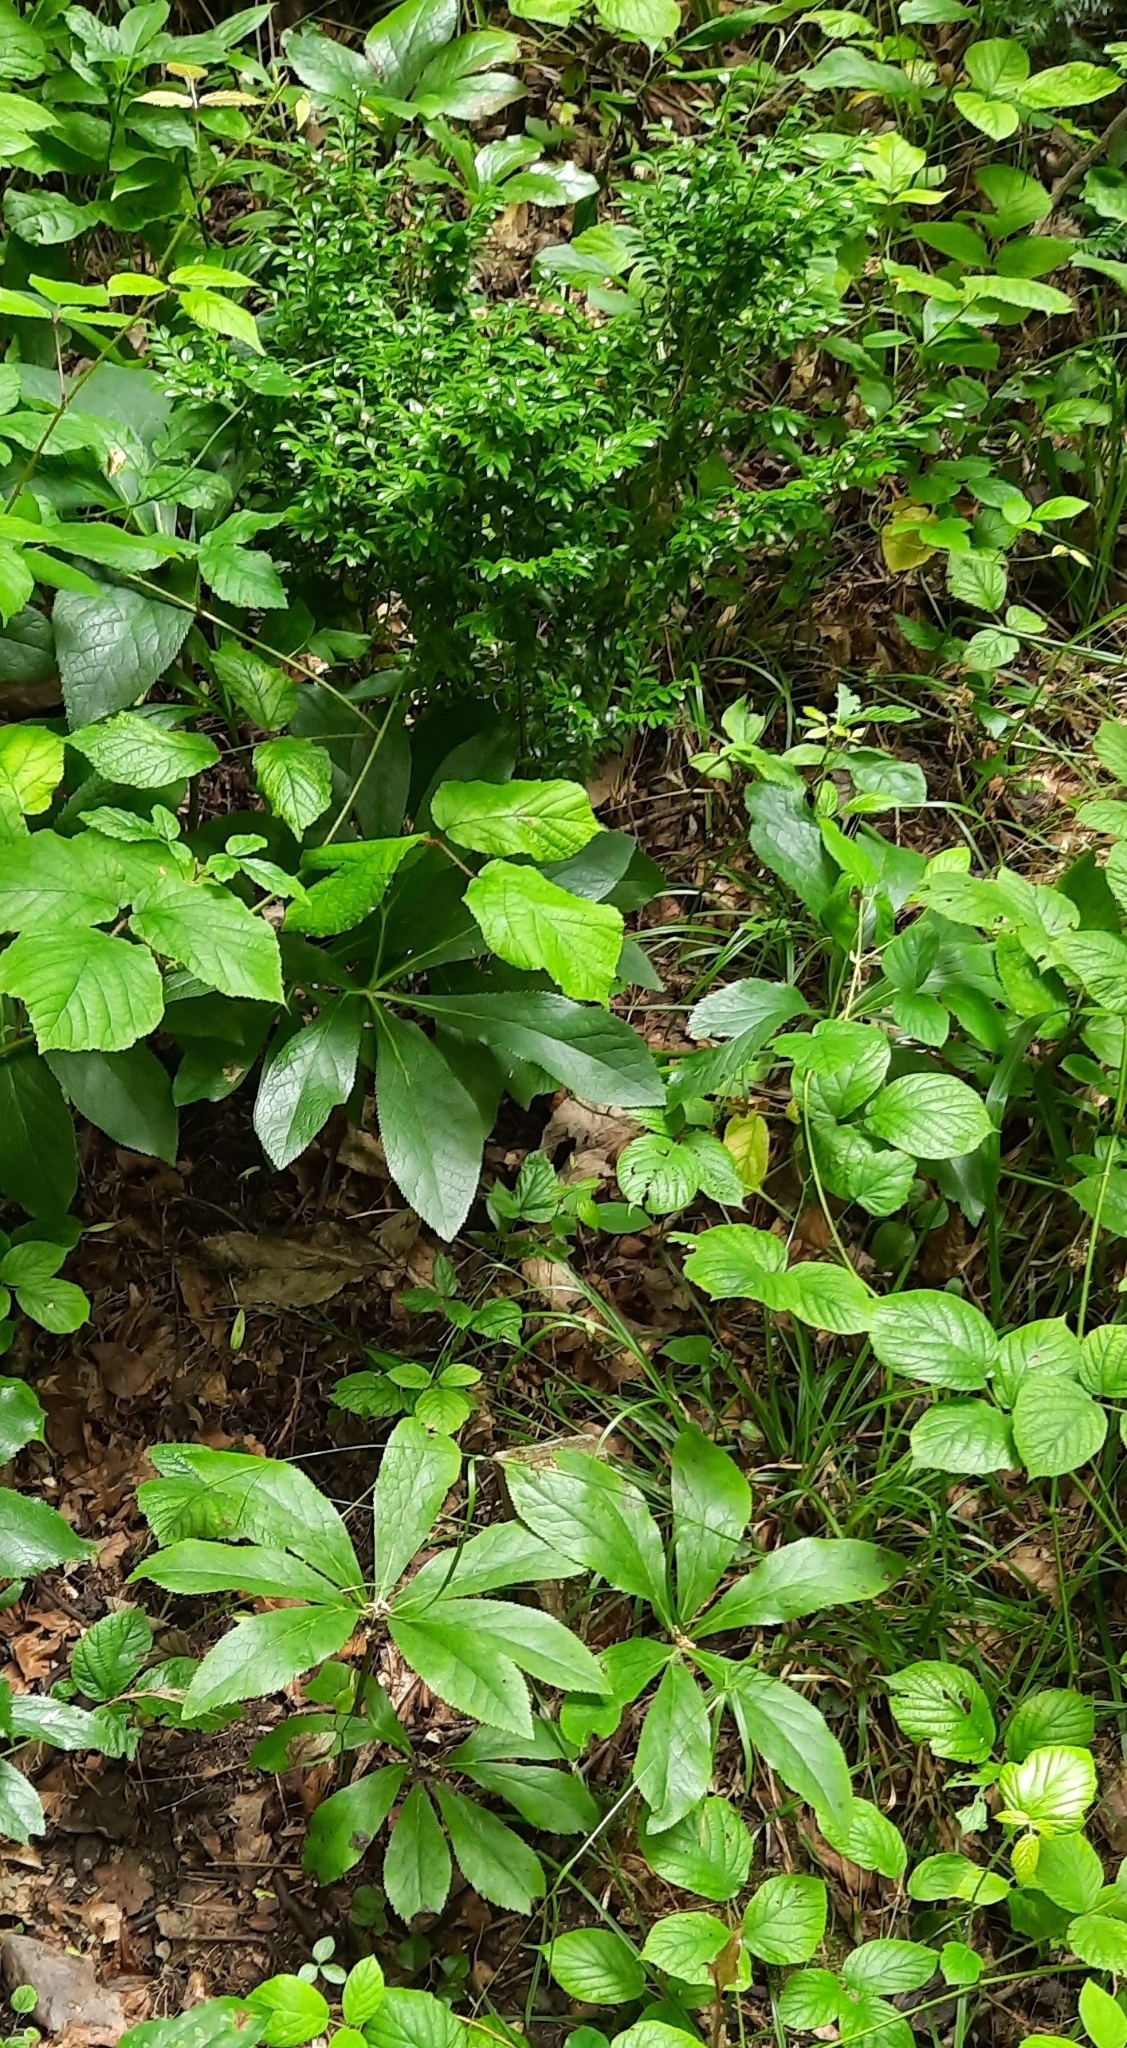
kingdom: Plantae
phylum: Tracheophyta
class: Magnoliopsida
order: Ranunculales
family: Ranunculaceae
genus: Helleborus
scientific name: Helleborus orientalis
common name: Lenten-rose
